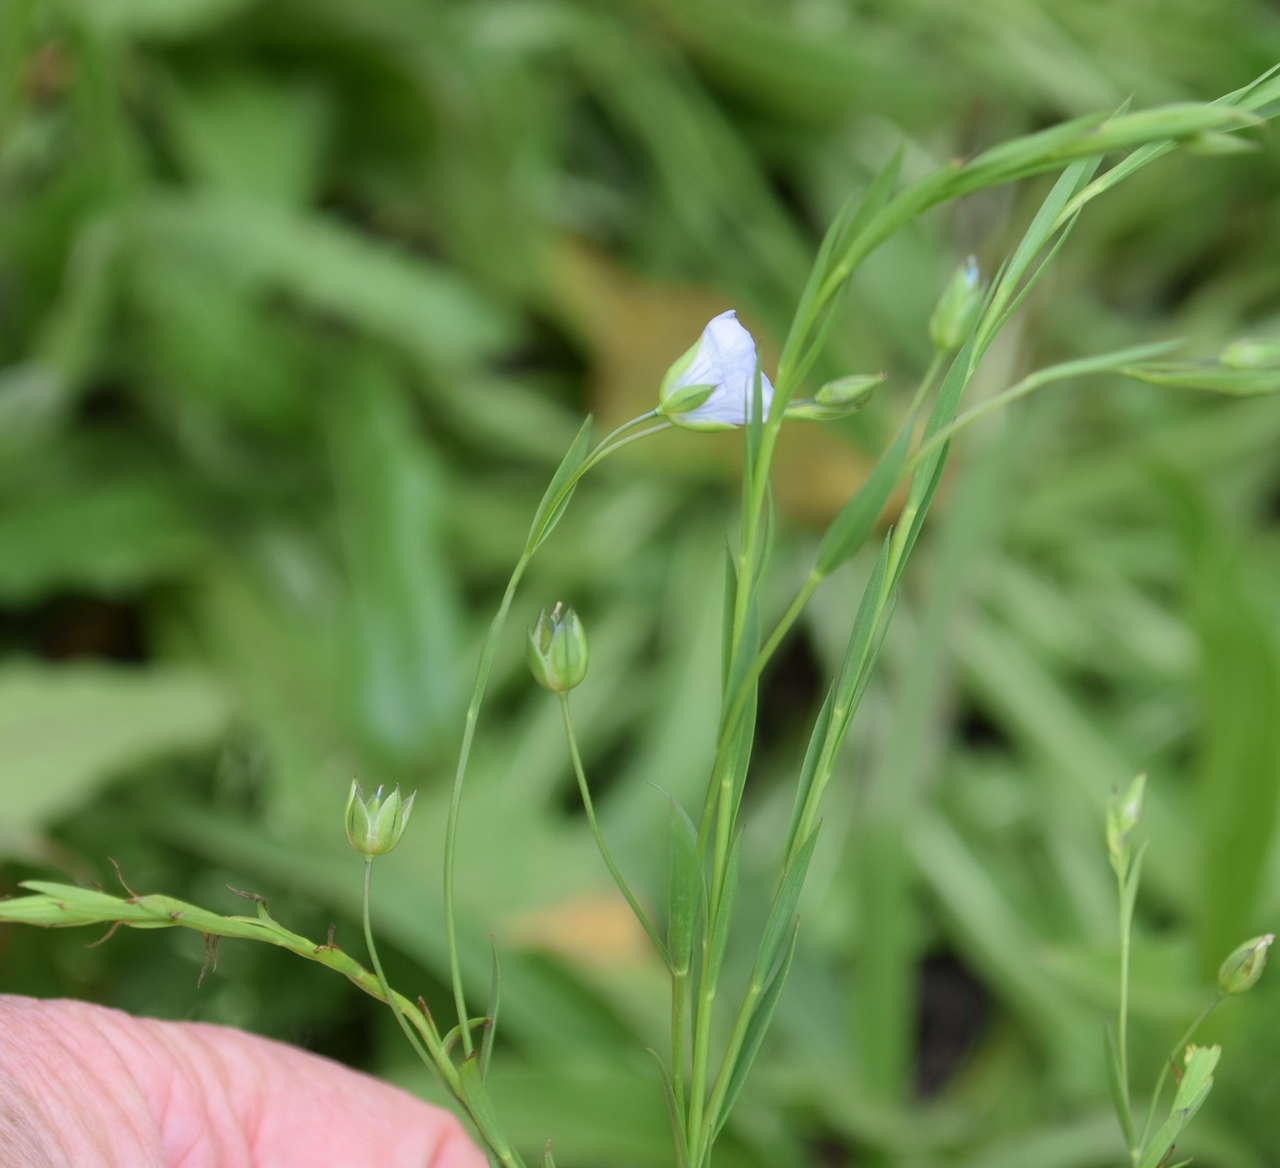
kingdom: Plantae
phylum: Tracheophyta
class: Magnoliopsida
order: Malpighiales
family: Linaceae
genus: Linum
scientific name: Linum marginale
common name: Wild flax
